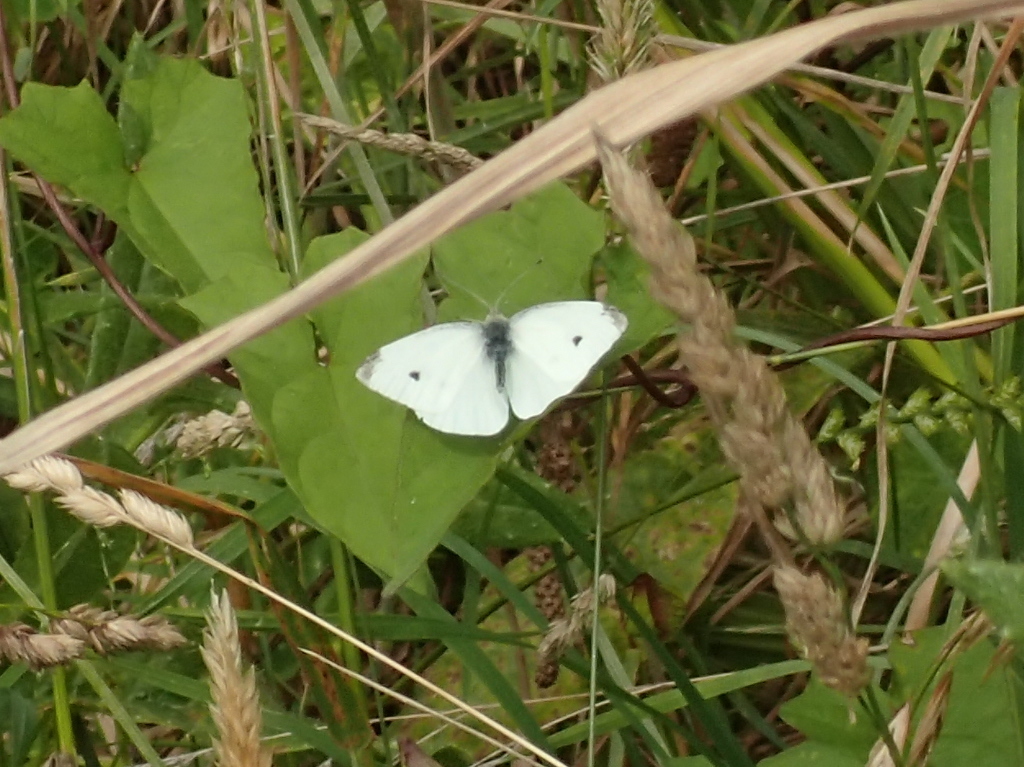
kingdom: Animalia
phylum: Arthropoda
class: Insecta
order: Lepidoptera
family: Pieridae
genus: Pieris
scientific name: Pieris rapae
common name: Small white
